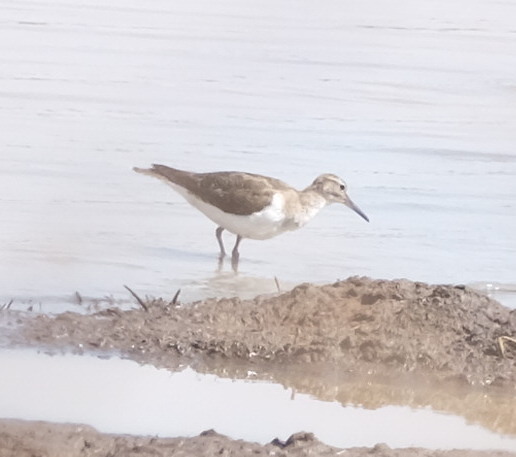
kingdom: Animalia
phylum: Chordata
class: Aves
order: Charadriiformes
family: Scolopacidae
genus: Actitis
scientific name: Actitis hypoleucos
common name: Common sandpiper
